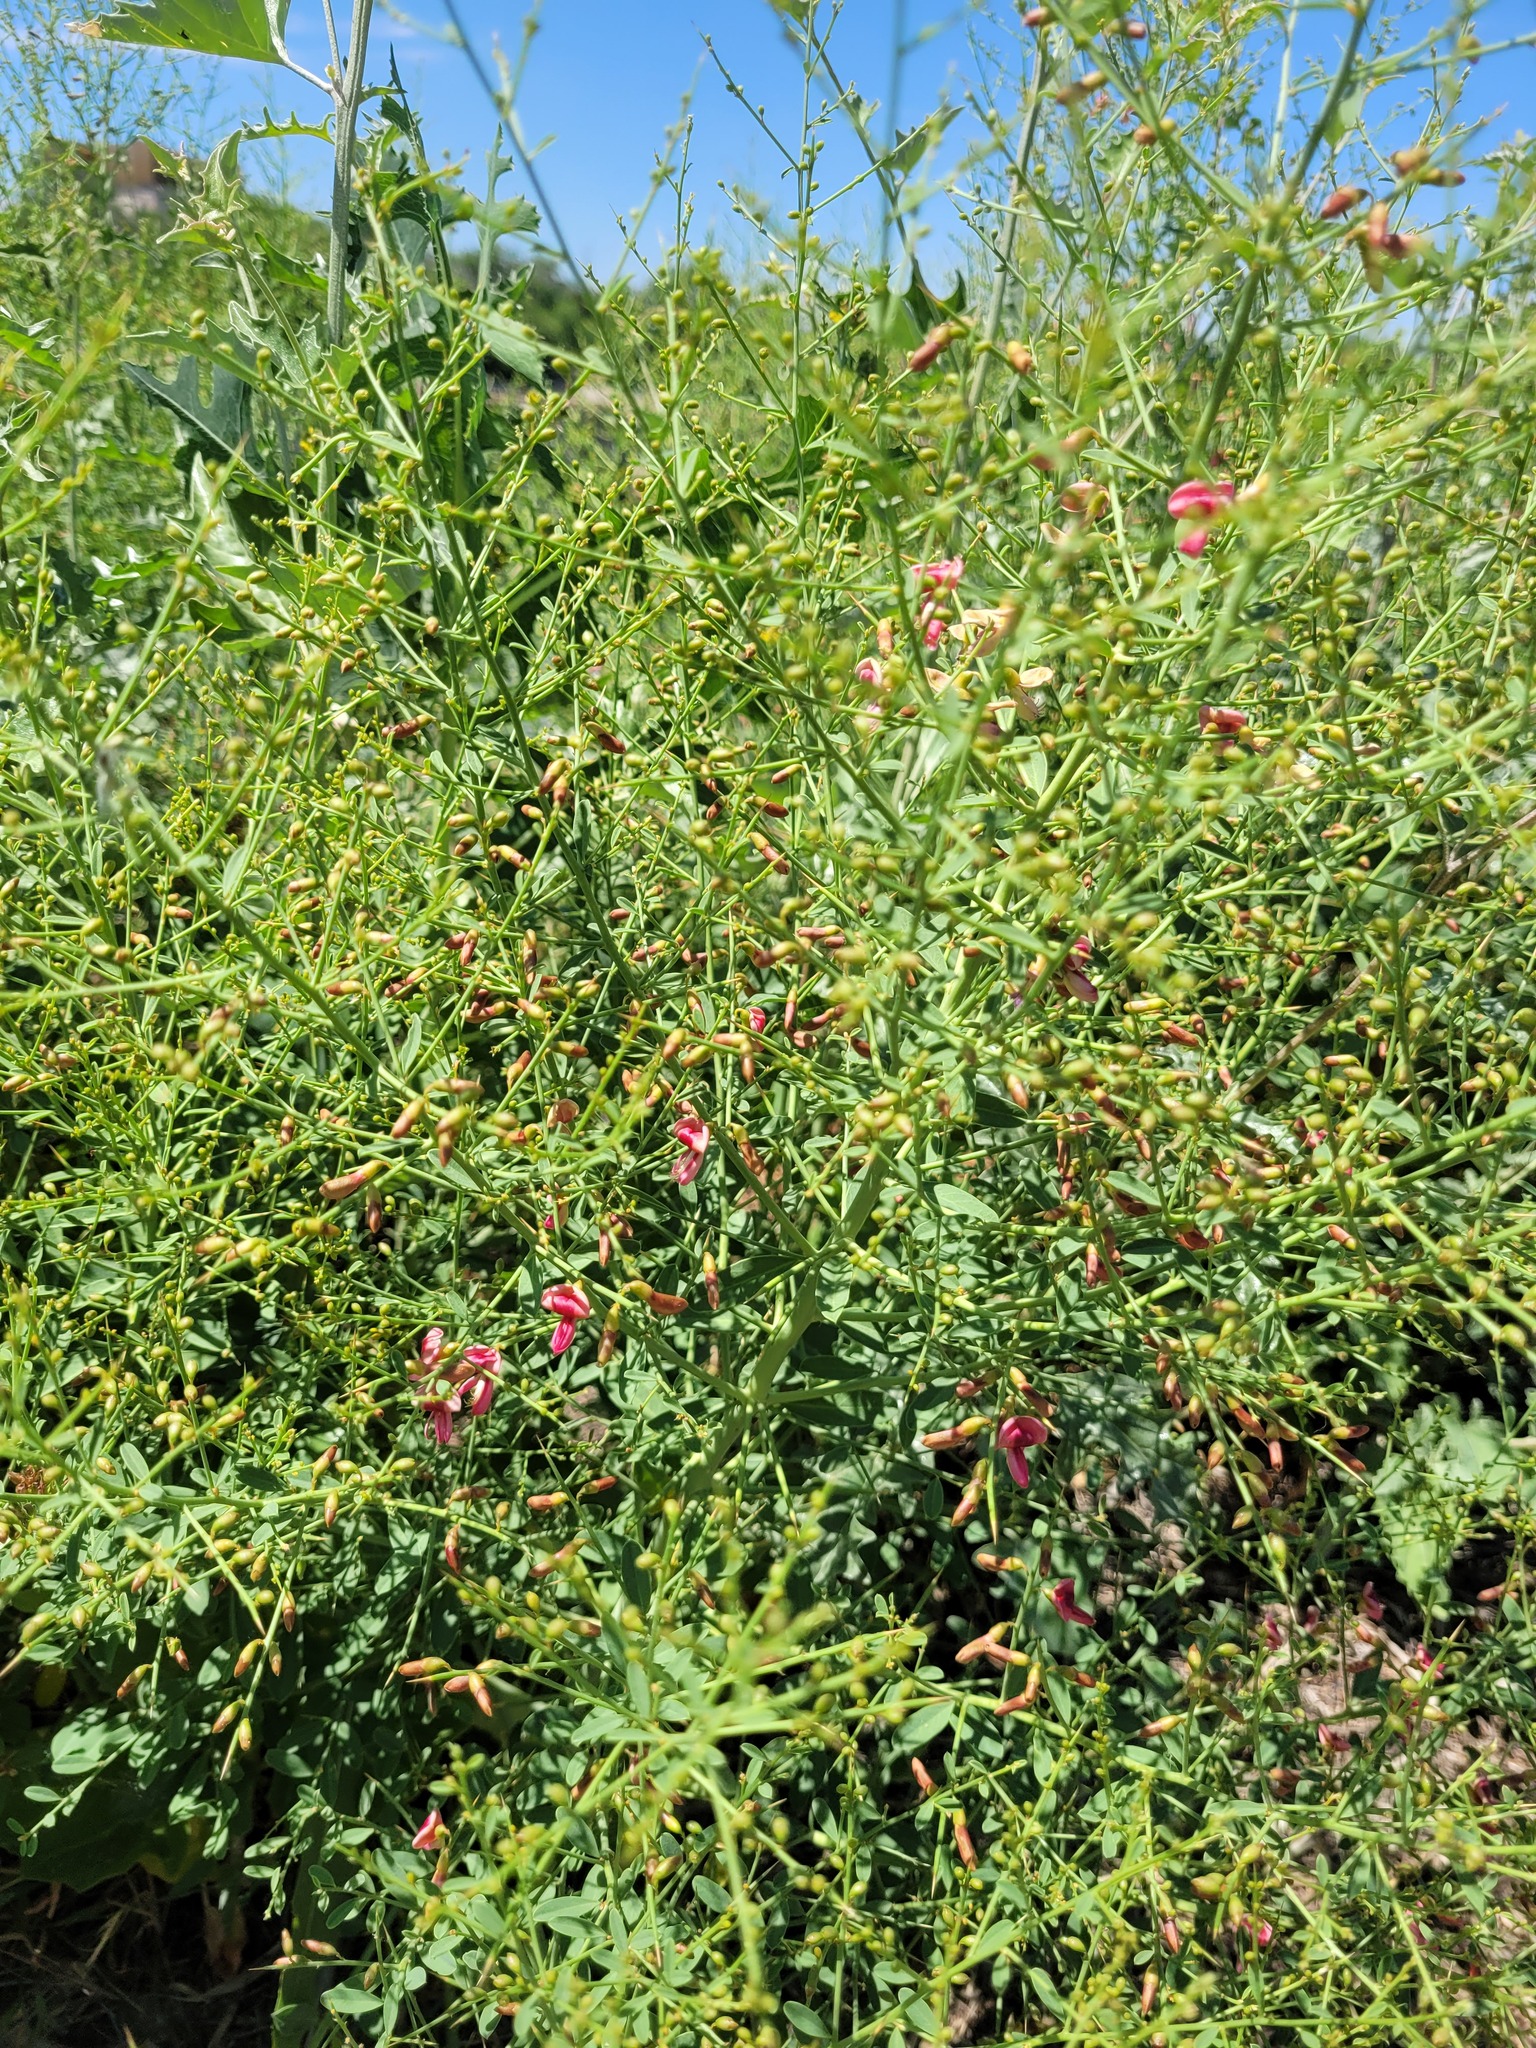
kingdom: Plantae
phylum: Tracheophyta
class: Magnoliopsida
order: Fabales
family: Fabaceae
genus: Alhagi
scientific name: Alhagi pseudalhagi
